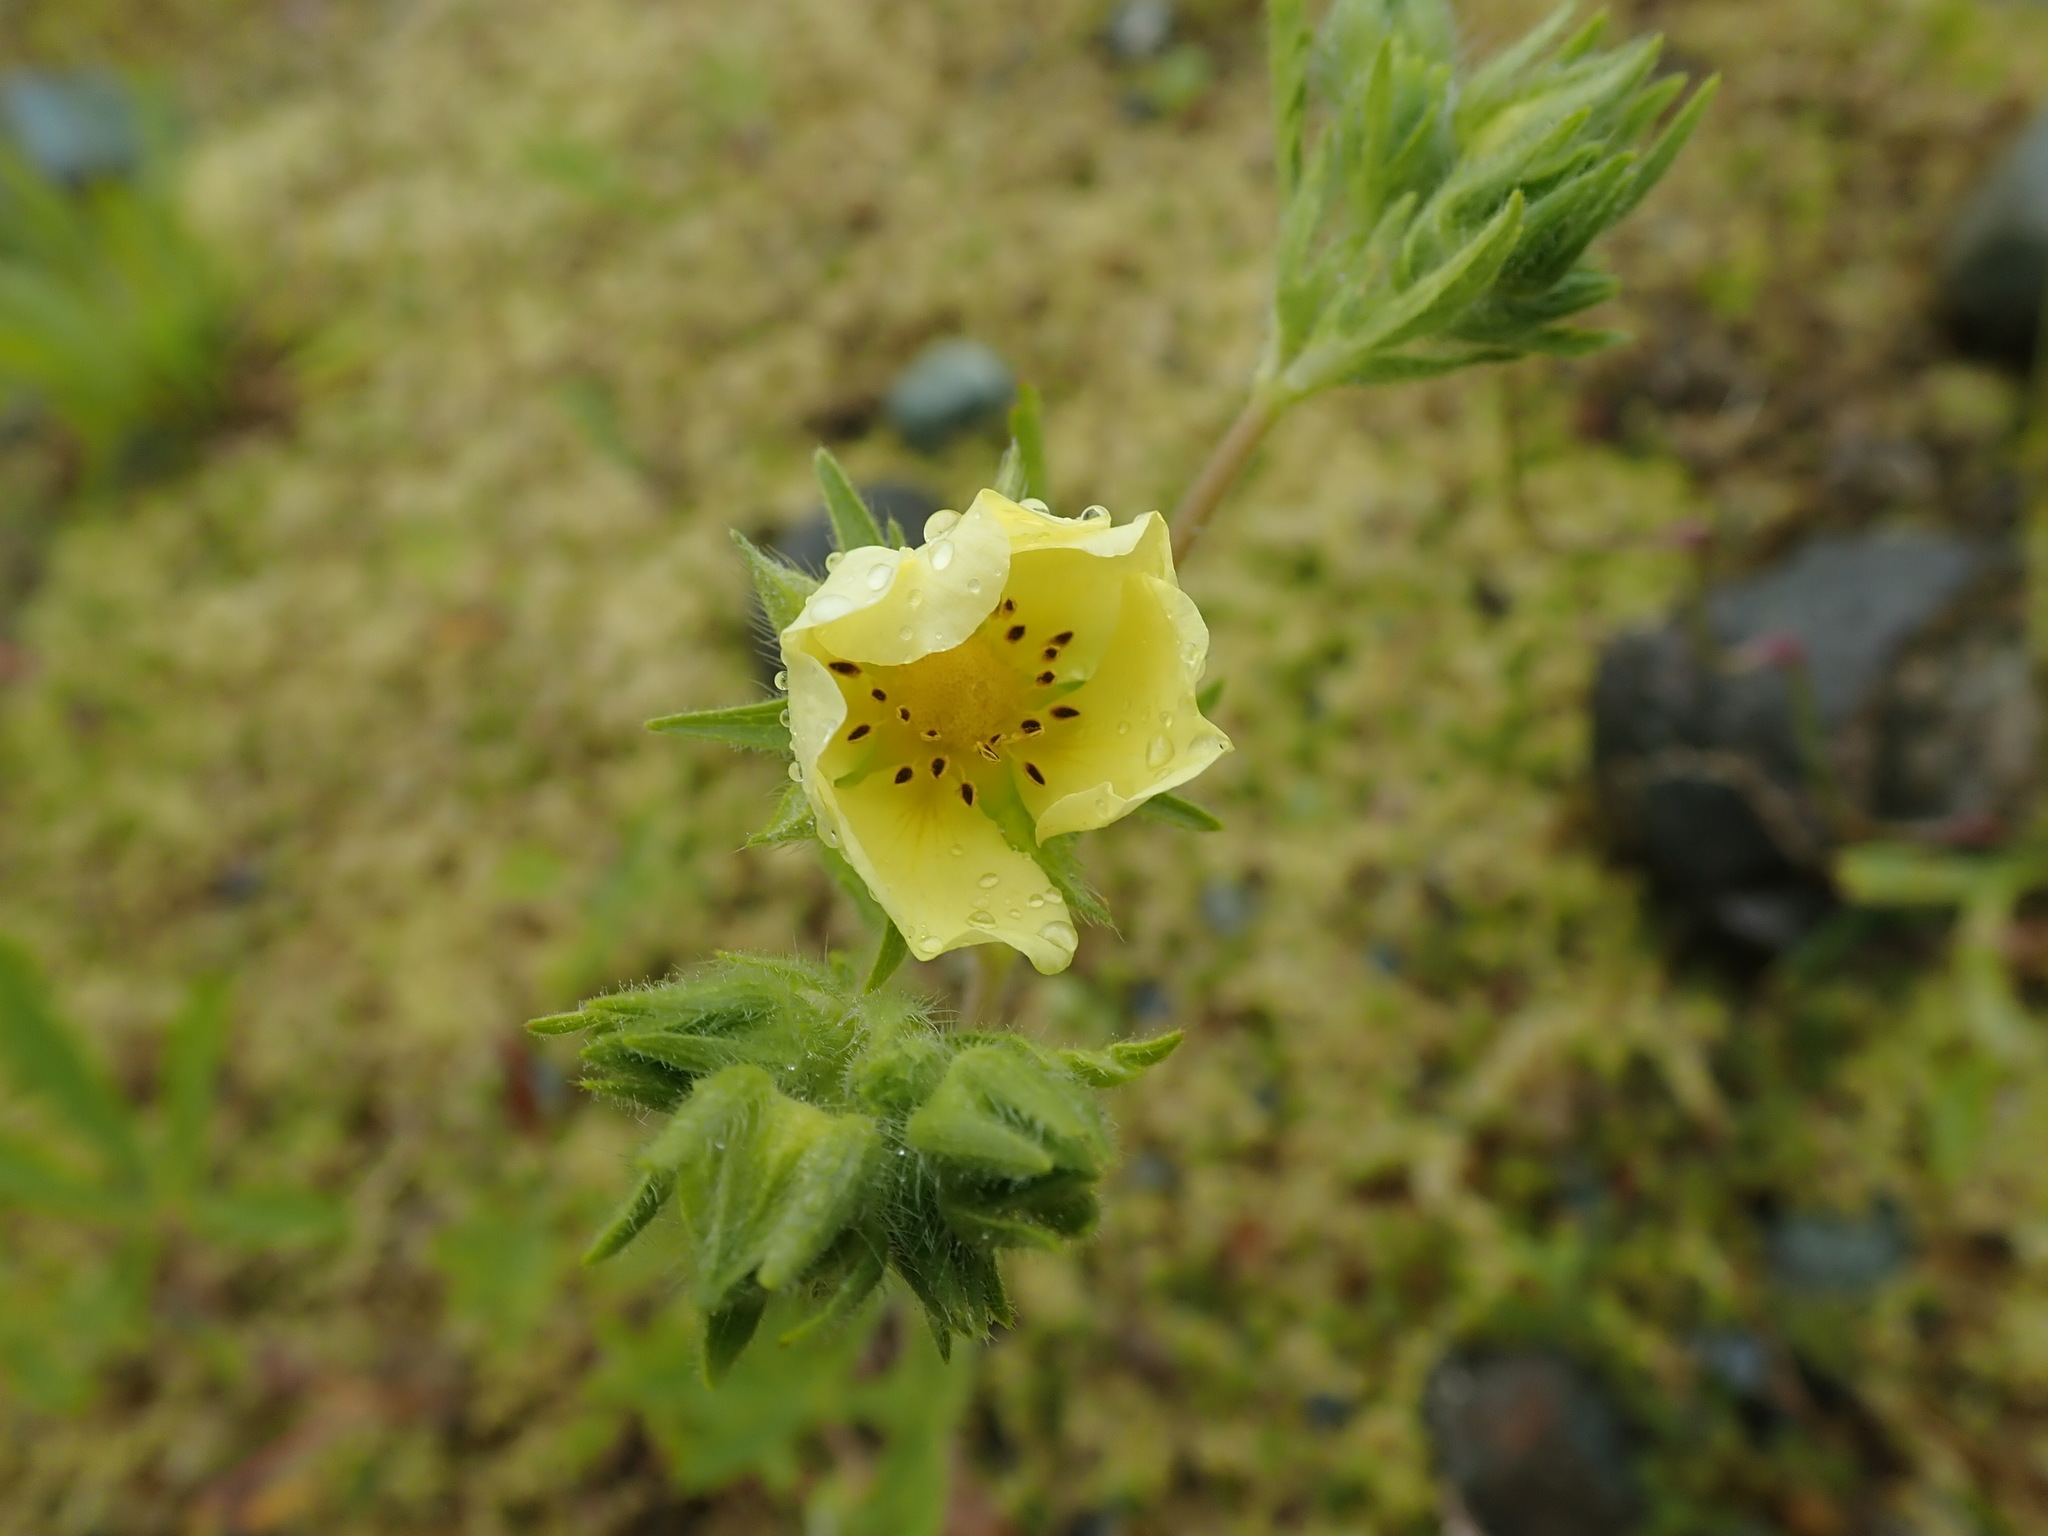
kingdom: Plantae
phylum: Tracheophyta
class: Magnoliopsida
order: Rosales
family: Rosaceae
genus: Potentilla
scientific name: Potentilla recta
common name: Sulphur cinquefoil
